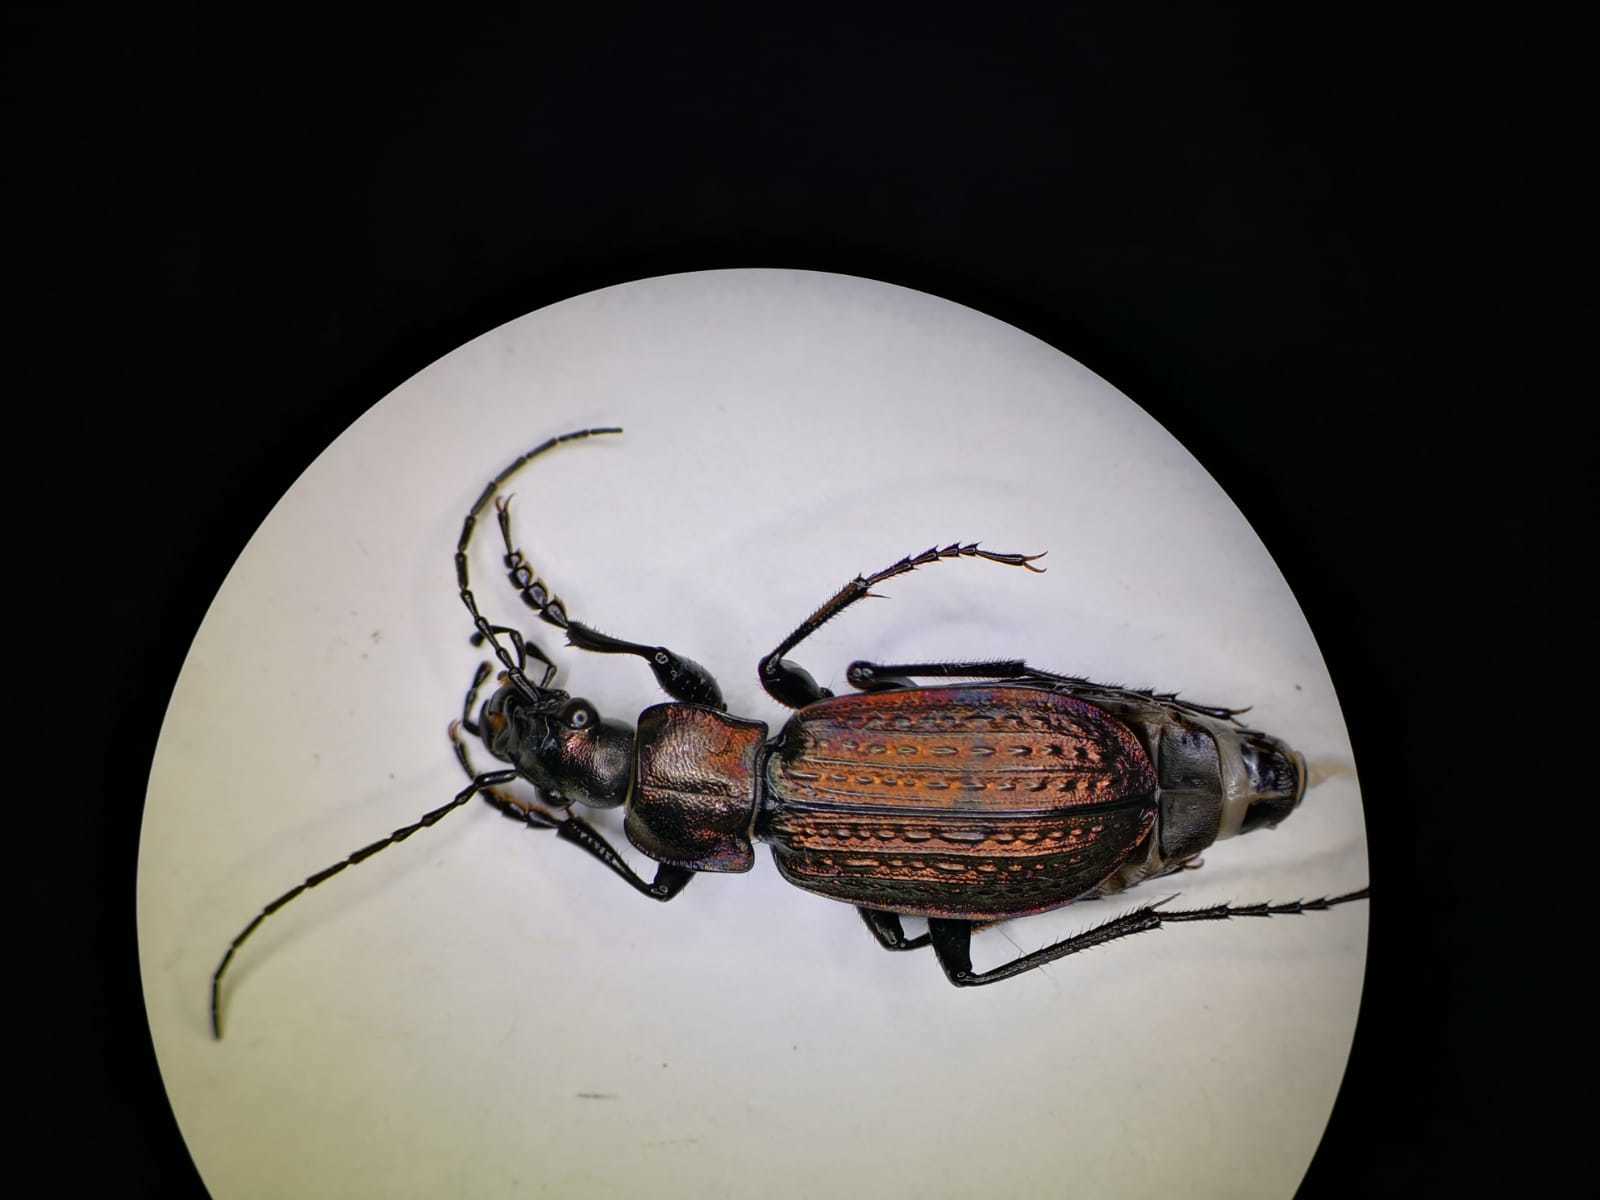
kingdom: Animalia
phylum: Arthropoda
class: Insecta
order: Coleoptera
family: Carabidae
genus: Carabus
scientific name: Carabus granulatus
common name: Granulate ground beetle
